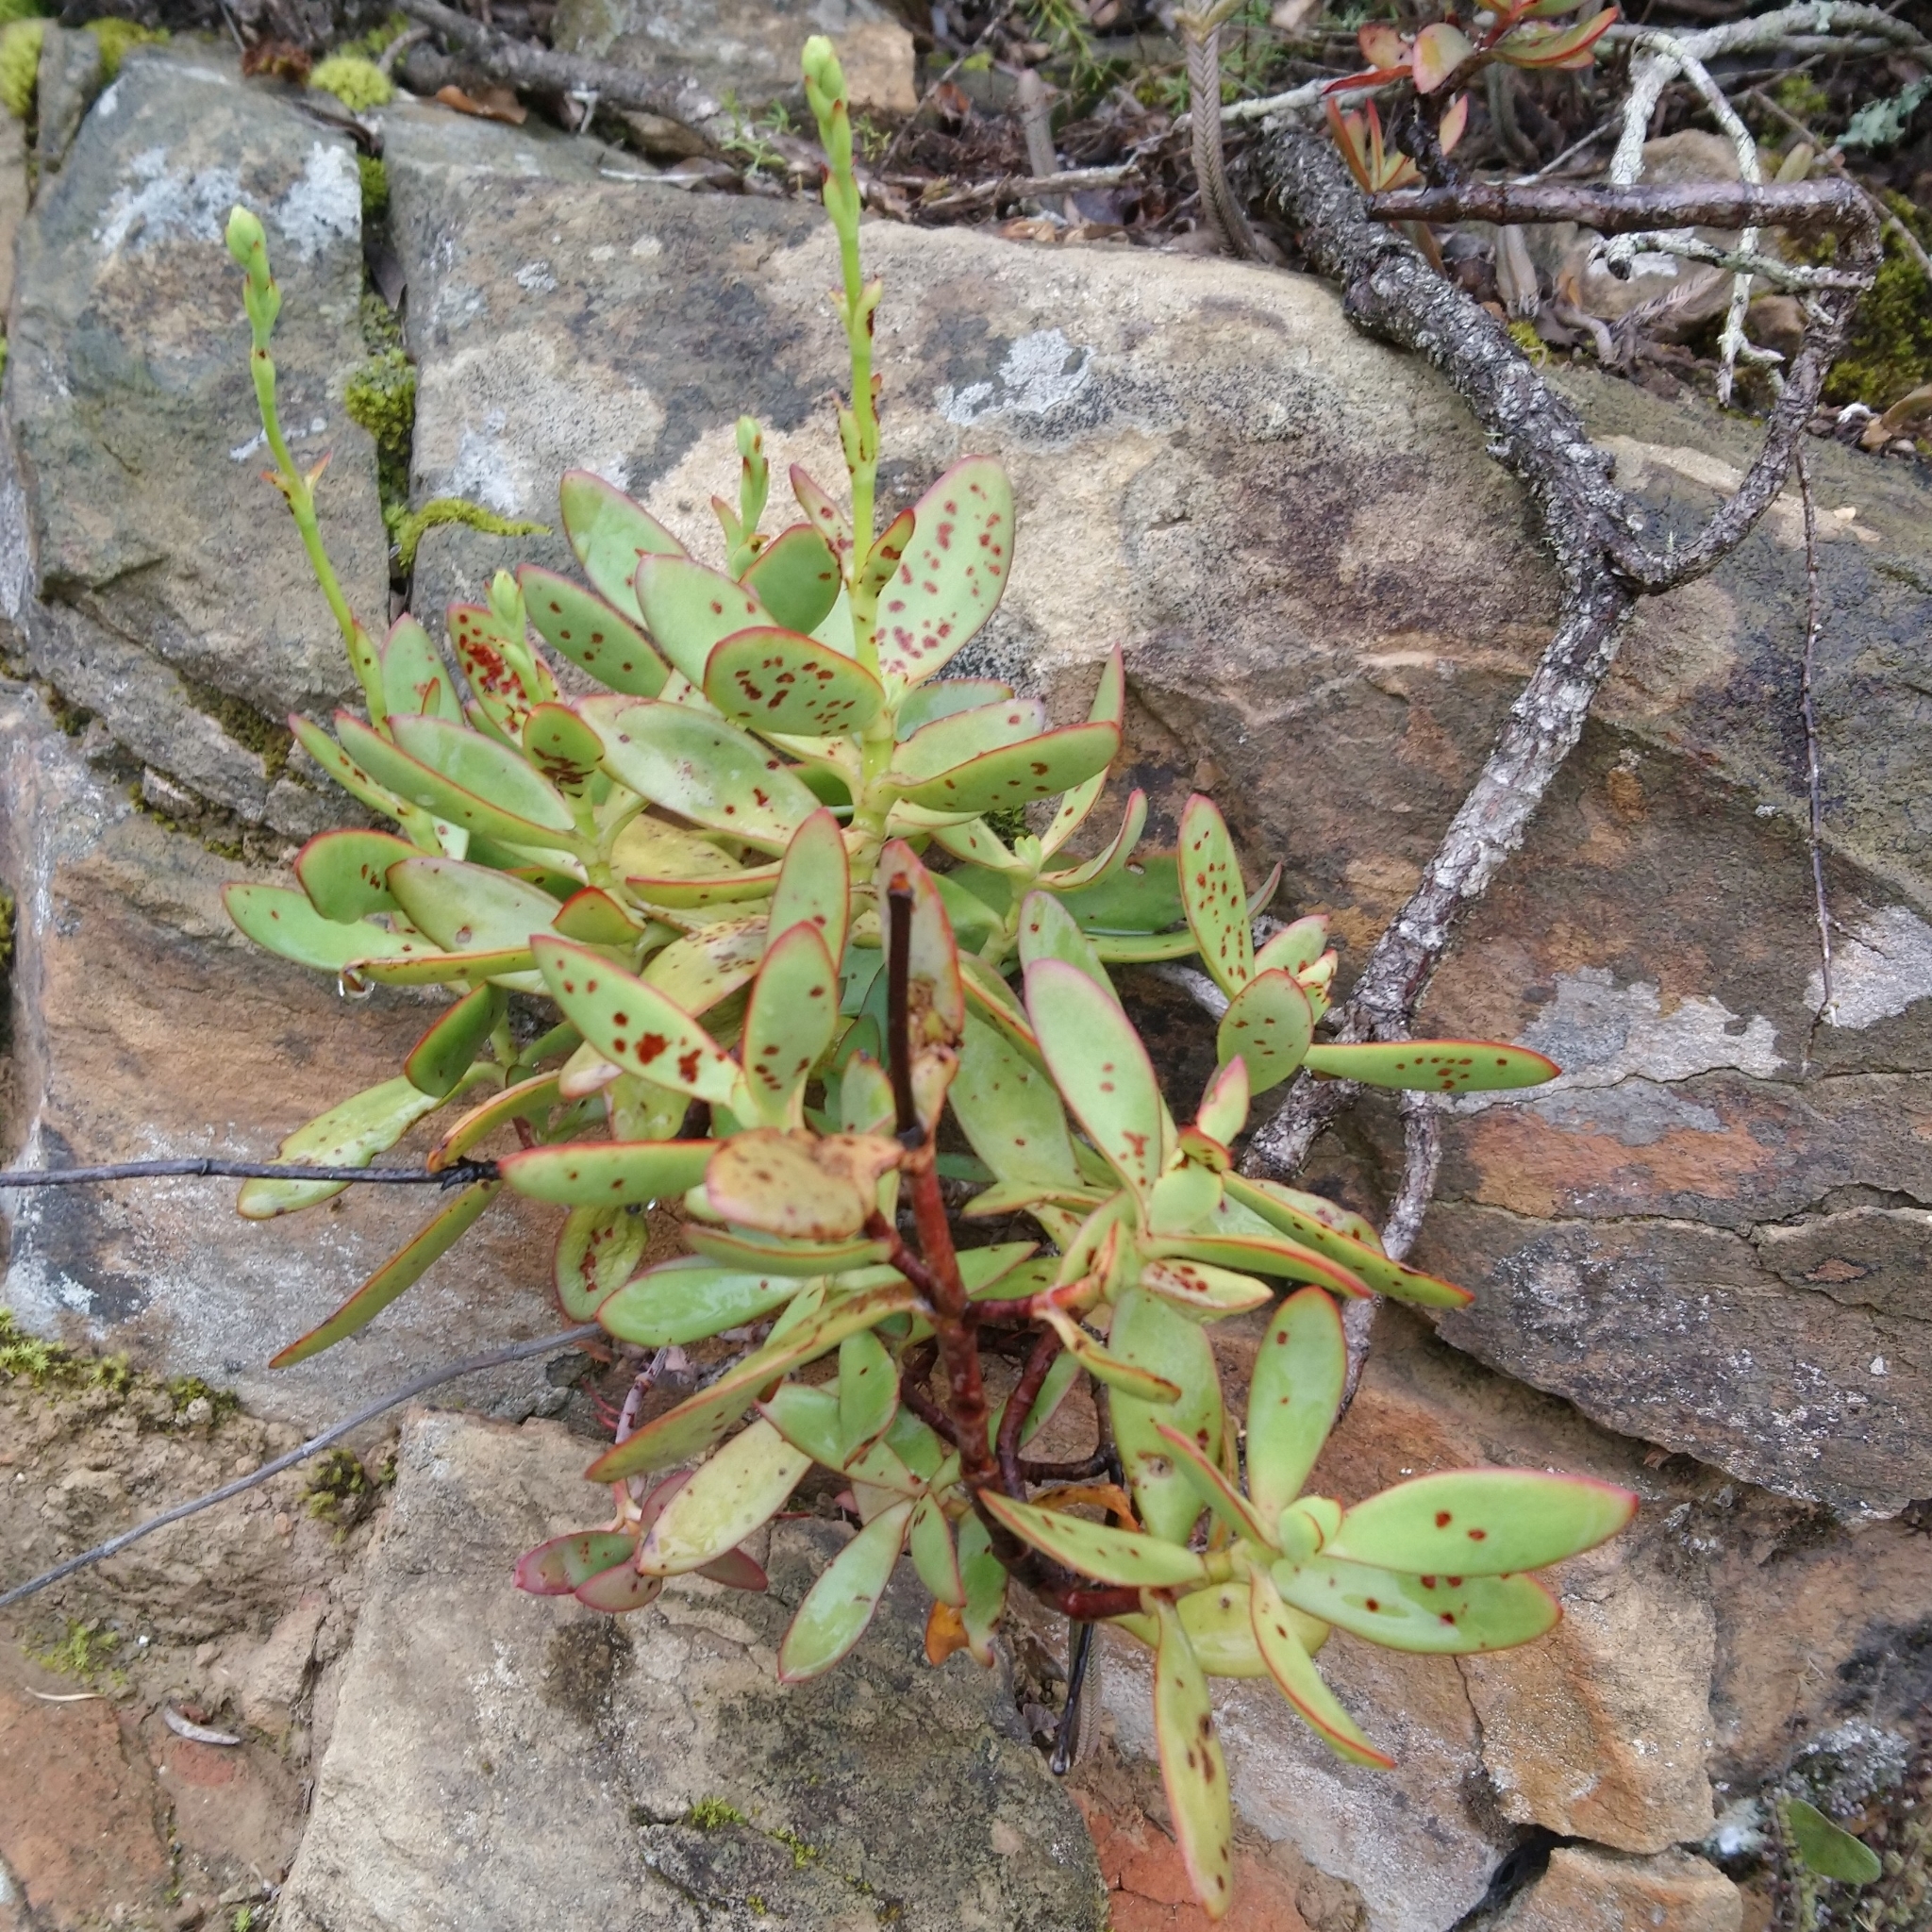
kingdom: Plantae
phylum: Tracheophyta
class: Magnoliopsida
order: Saxifragales
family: Crassulaceae
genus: Crassula
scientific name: Crassula cultrata
